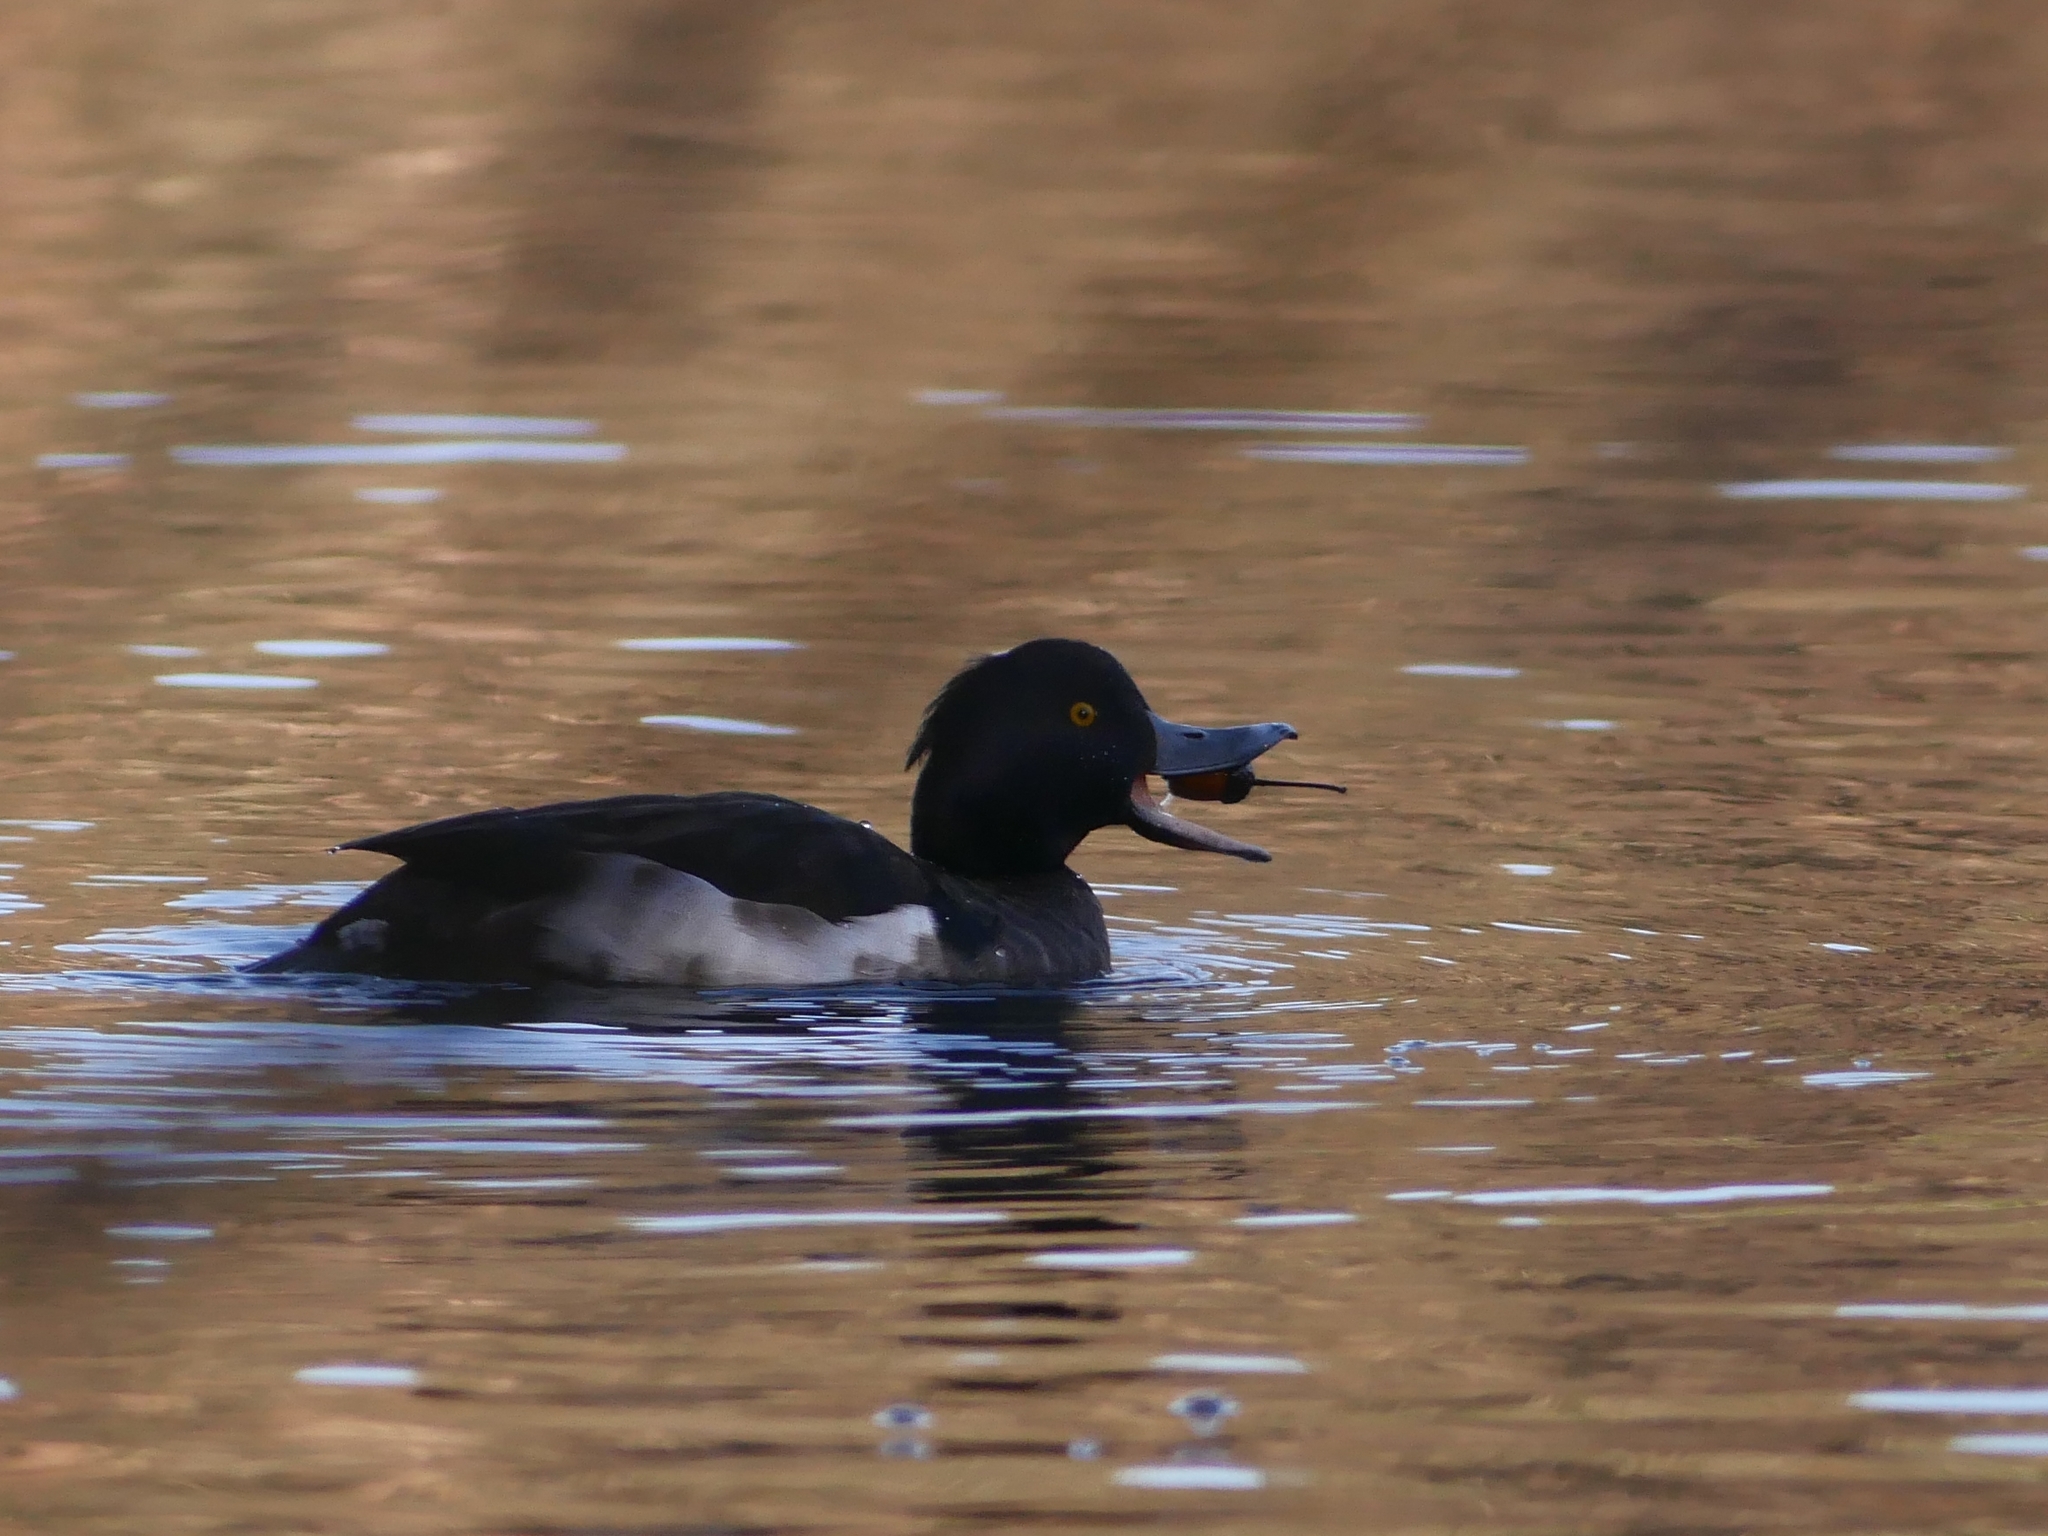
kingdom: Animalia
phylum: Chordata
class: Aves
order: Anseriformes
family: Anatidae
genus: Aythya
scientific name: Aythya fuligula
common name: Tufted duck
